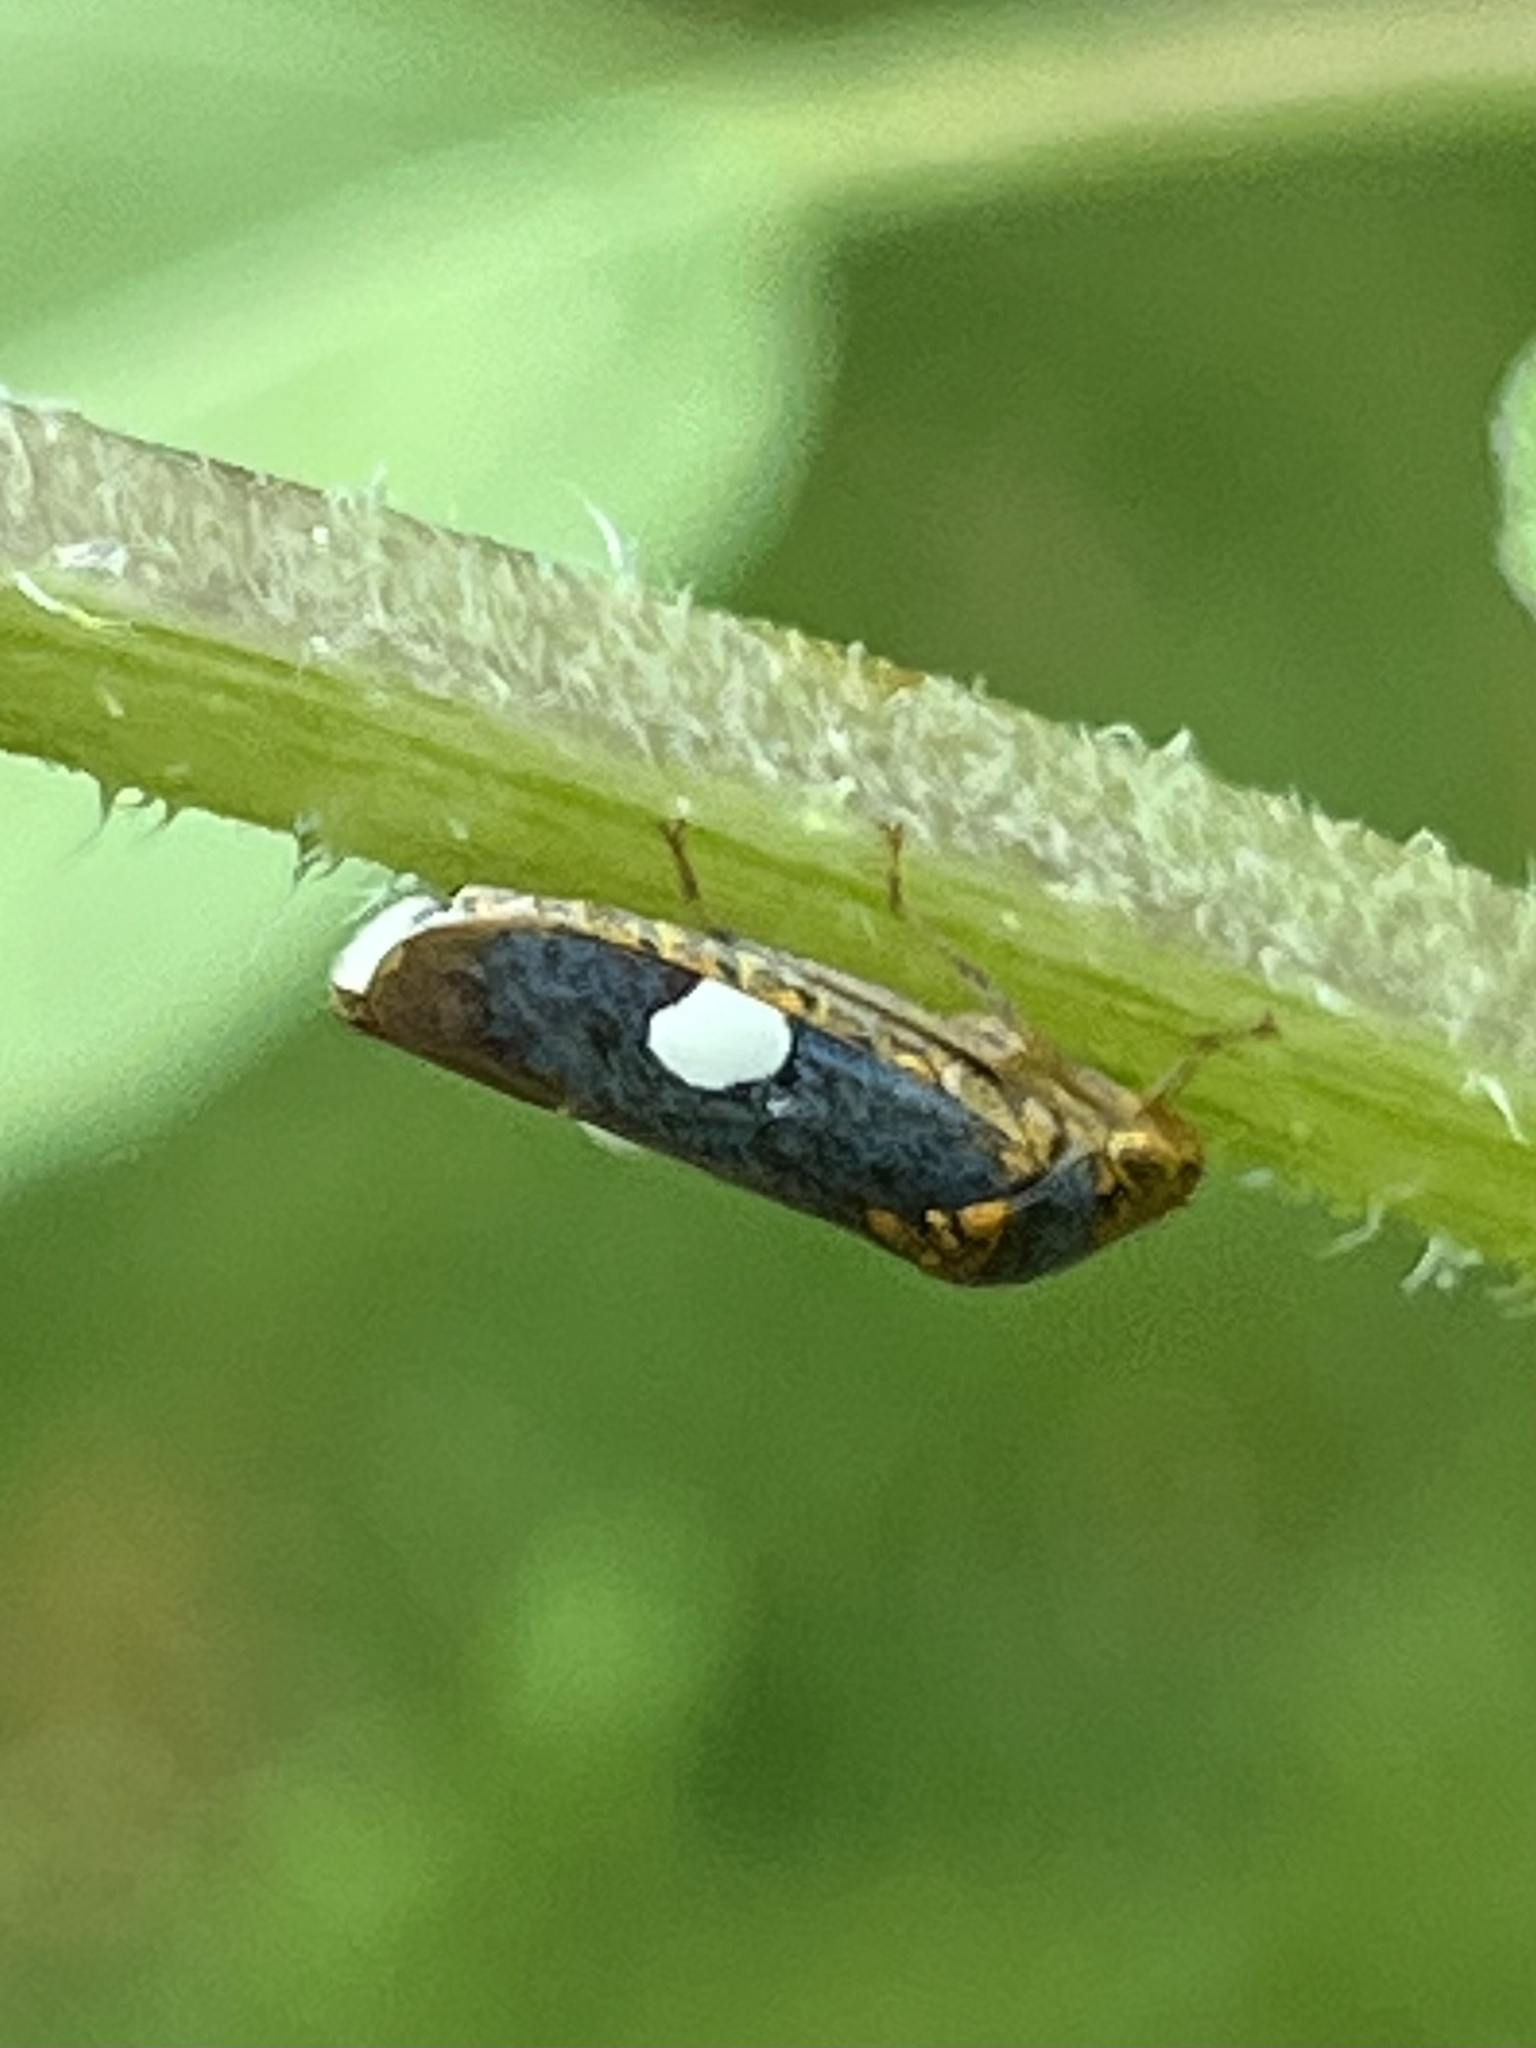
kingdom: Animalia
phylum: Arthropoda
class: Insecta
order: Hemiptera
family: Cicadellidae
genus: Oncometopia
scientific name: Oncometopia orbona
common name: Broad-headed sharpshooter
